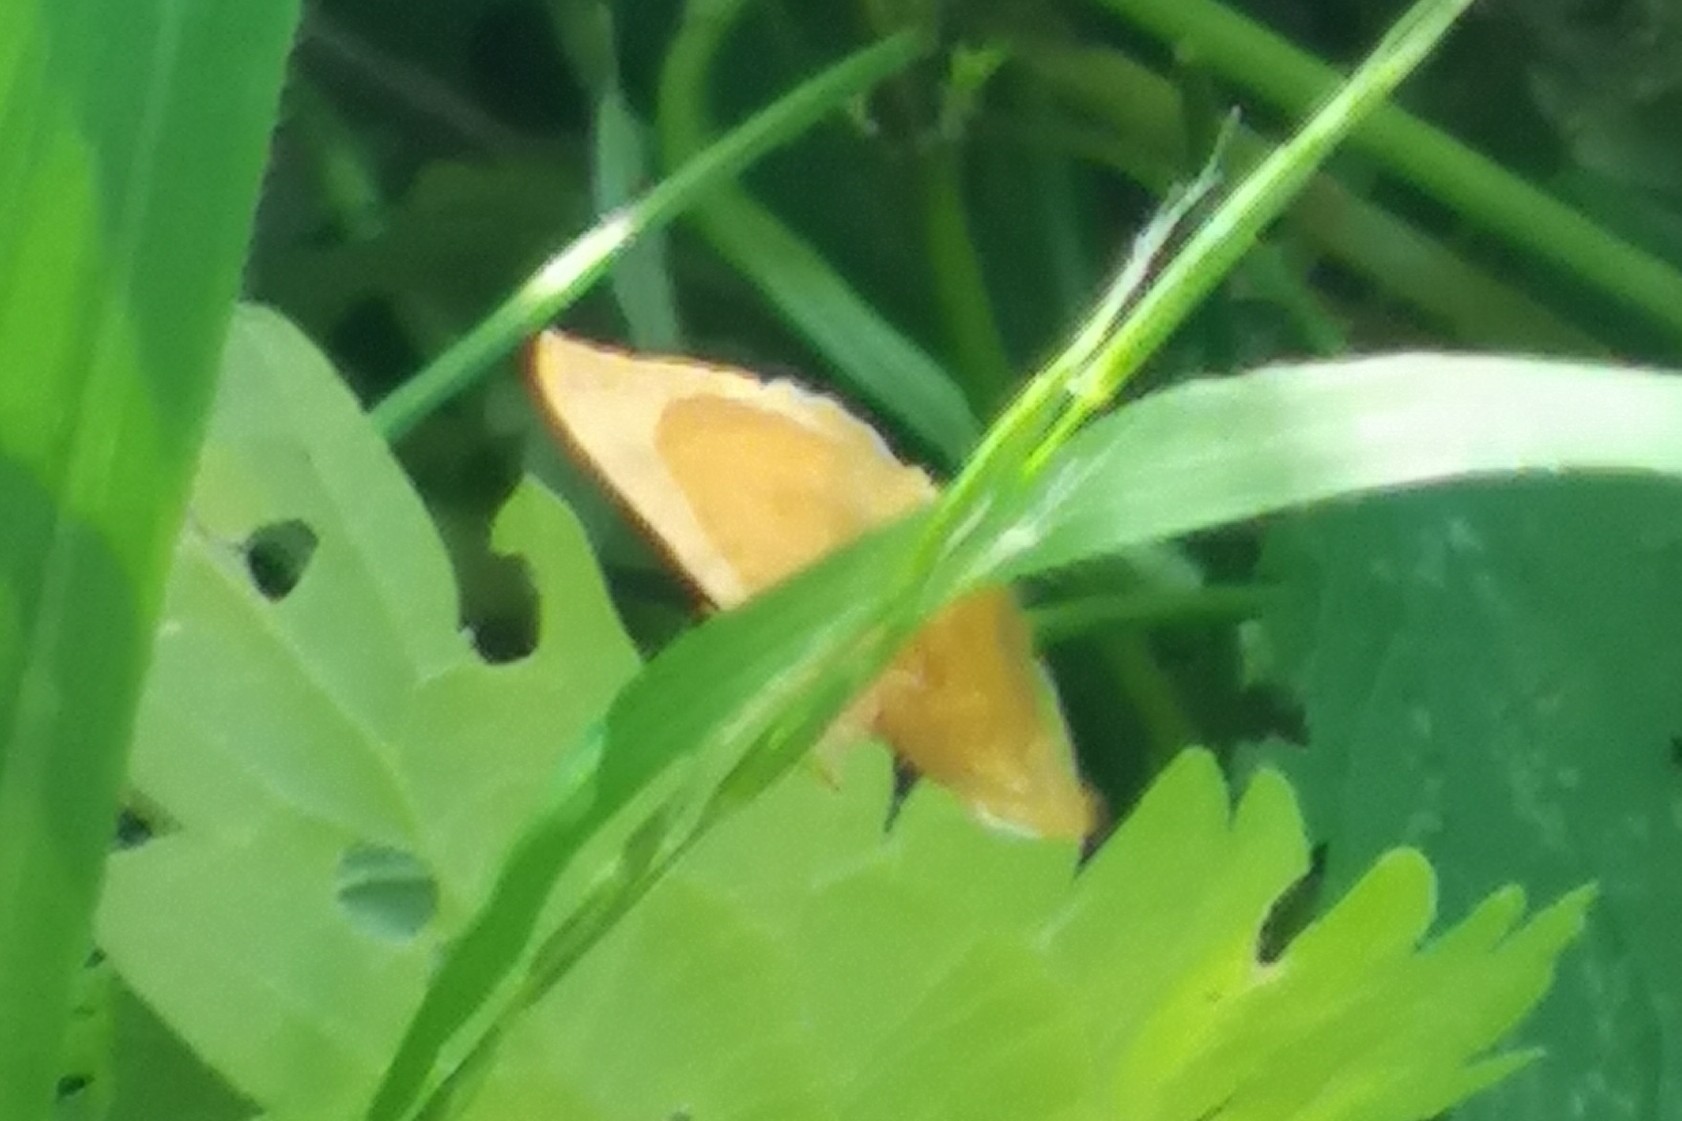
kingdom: Animalia
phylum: Arthropoda
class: Insecta
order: Lepidoptera
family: Geometridae
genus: Camptogramma
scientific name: Camptogramma bilineata
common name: Yellow shell
